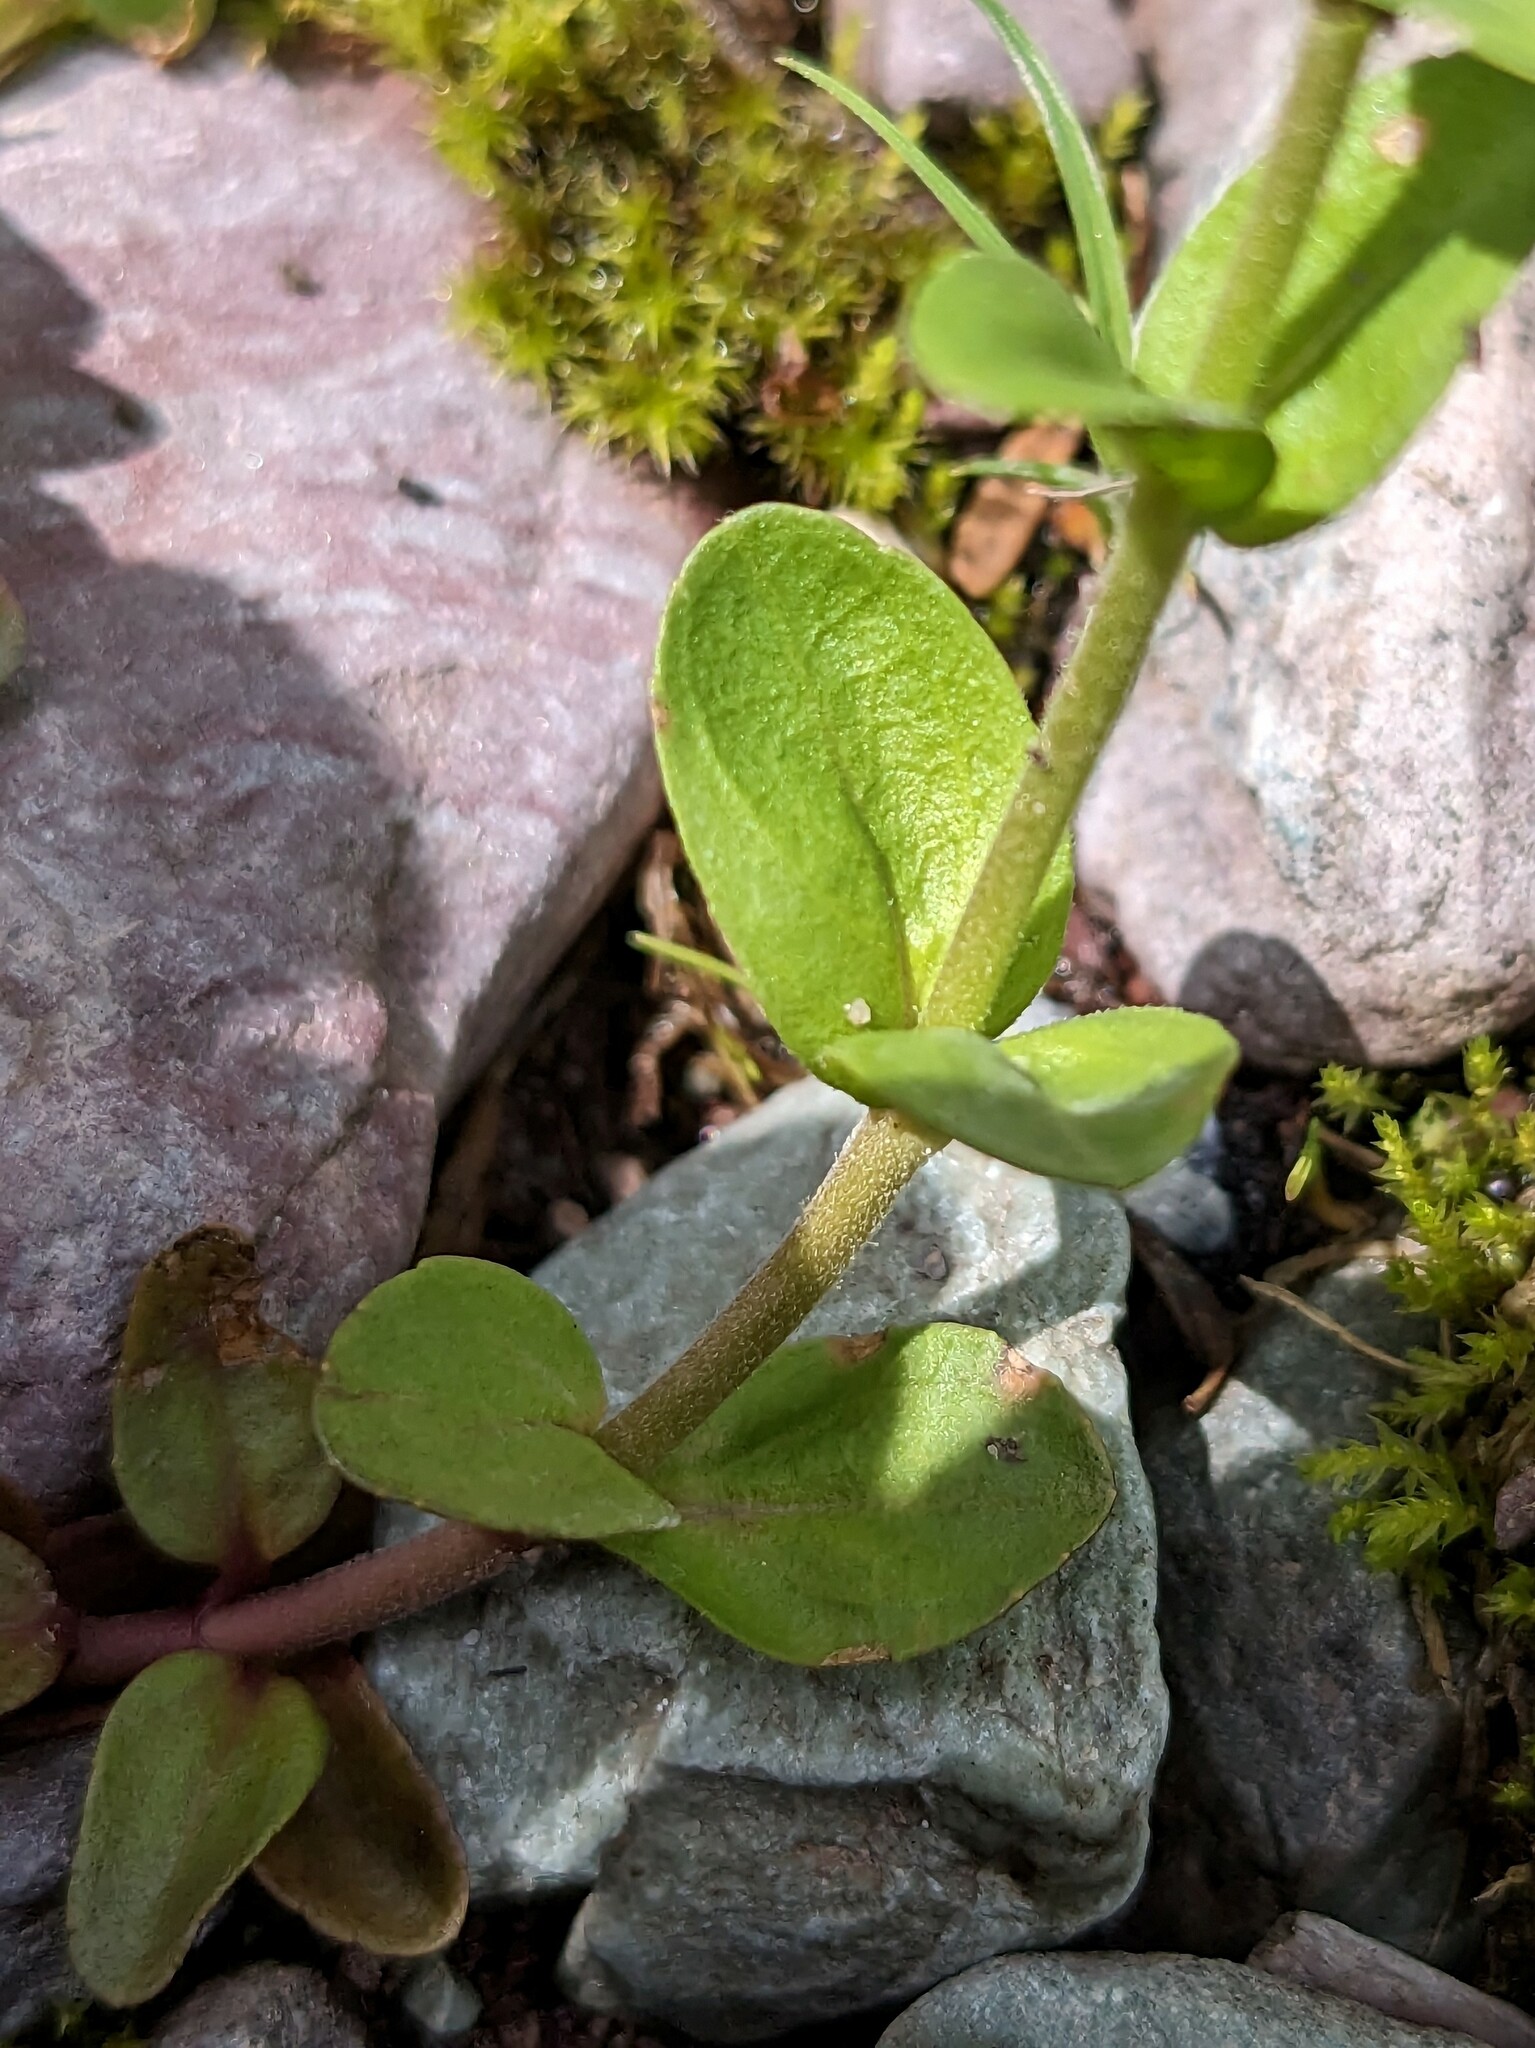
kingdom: Plantae
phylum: Tracheophyta
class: Magnoliopsida
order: Lamiales
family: Plantaginaceae
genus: Veronica
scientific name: Veronica serpyllifolia
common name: Thyme-leaved speedwell
